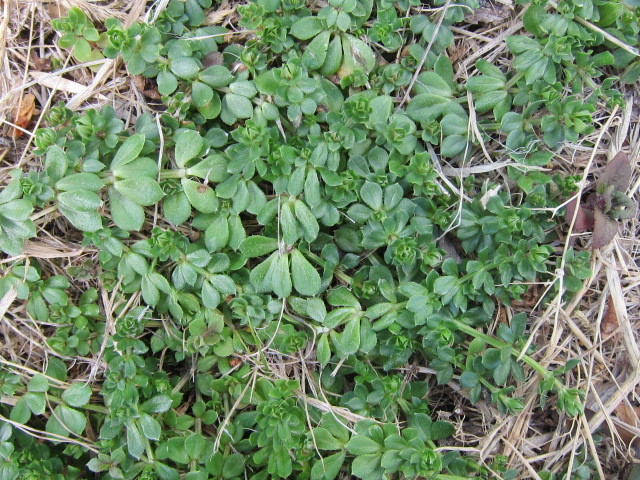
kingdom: Plantae
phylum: Tracheophyta
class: Magnoliopsida
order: Gentianales
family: Rubiaceae
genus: Sherardia
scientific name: Sherardia arvensis
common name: Field madder
